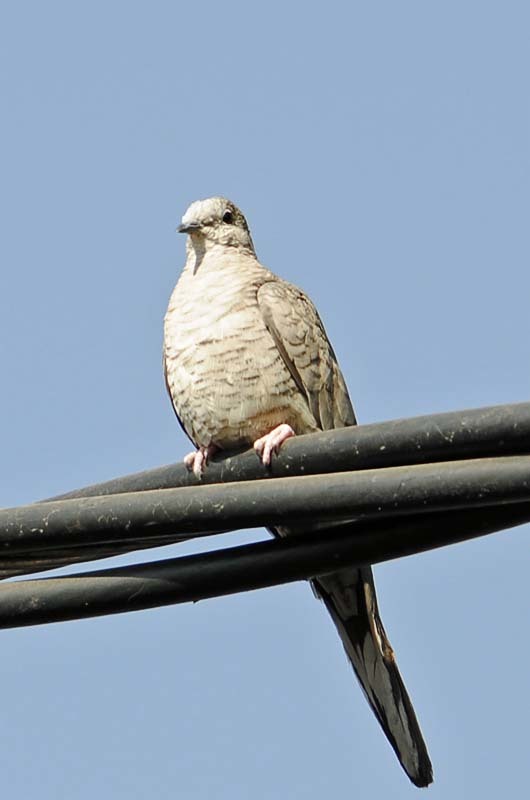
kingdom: Animalia
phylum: Chordata
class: Aves
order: Columbiformes
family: Columbidae
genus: Columbina
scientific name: Columbina inca
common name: Inca dove
